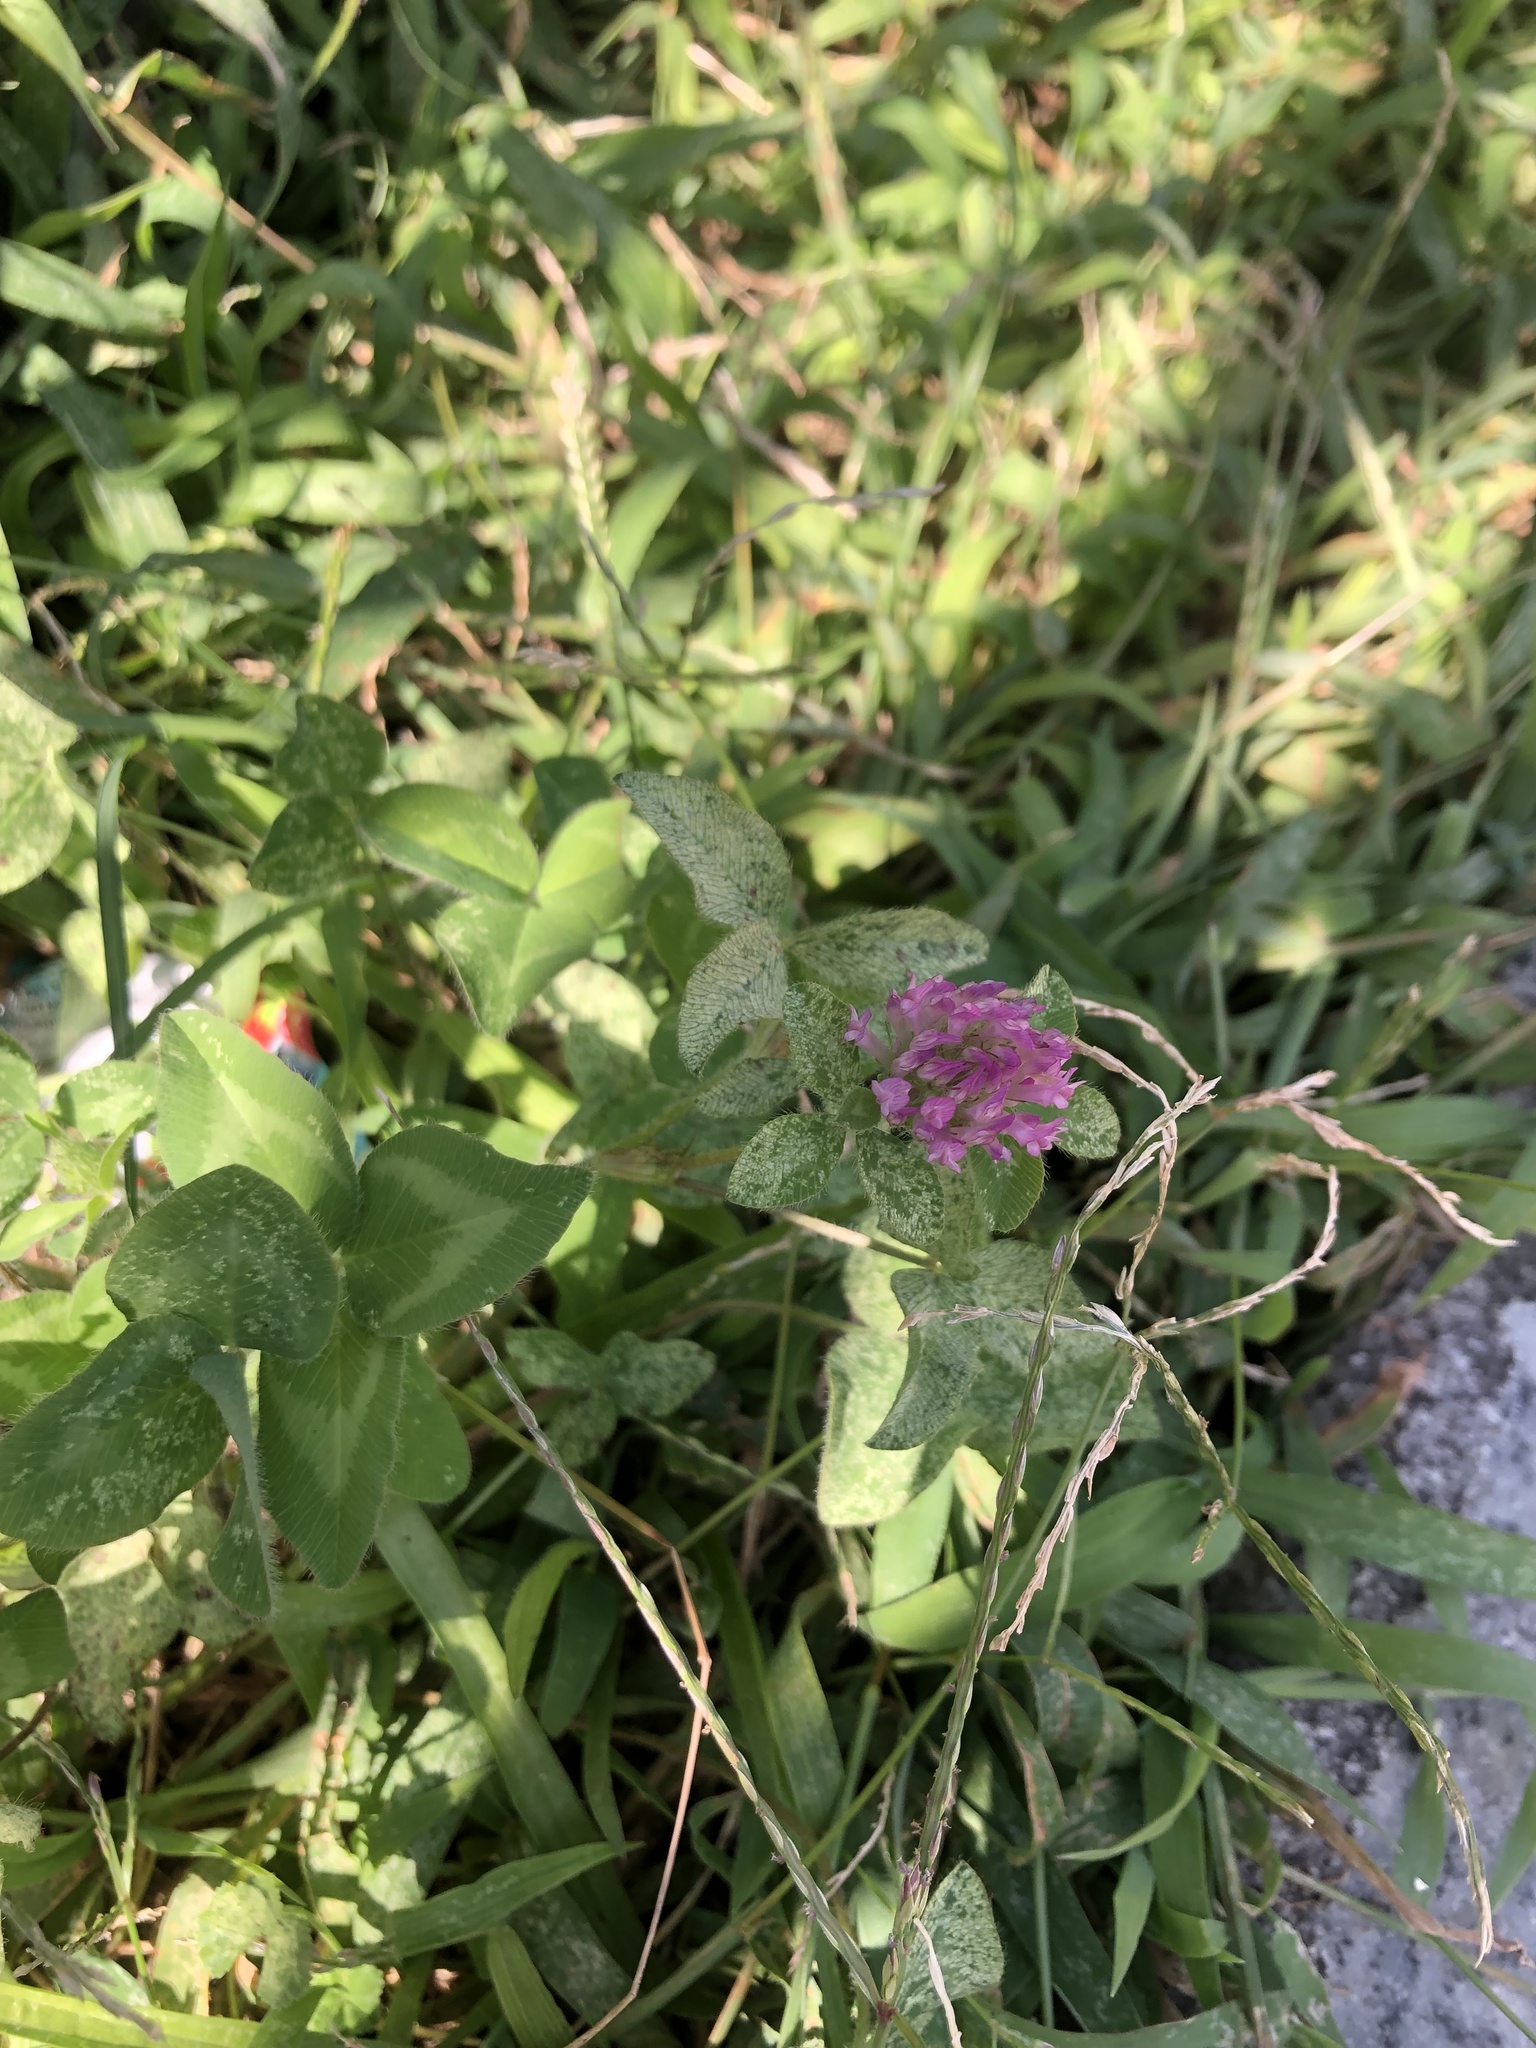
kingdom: Plantae
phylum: Tracheophyta
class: Magnoliopsida
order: Fabales
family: Fabaceae
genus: Trifolium
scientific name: Trifolium pratense
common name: Red clover
